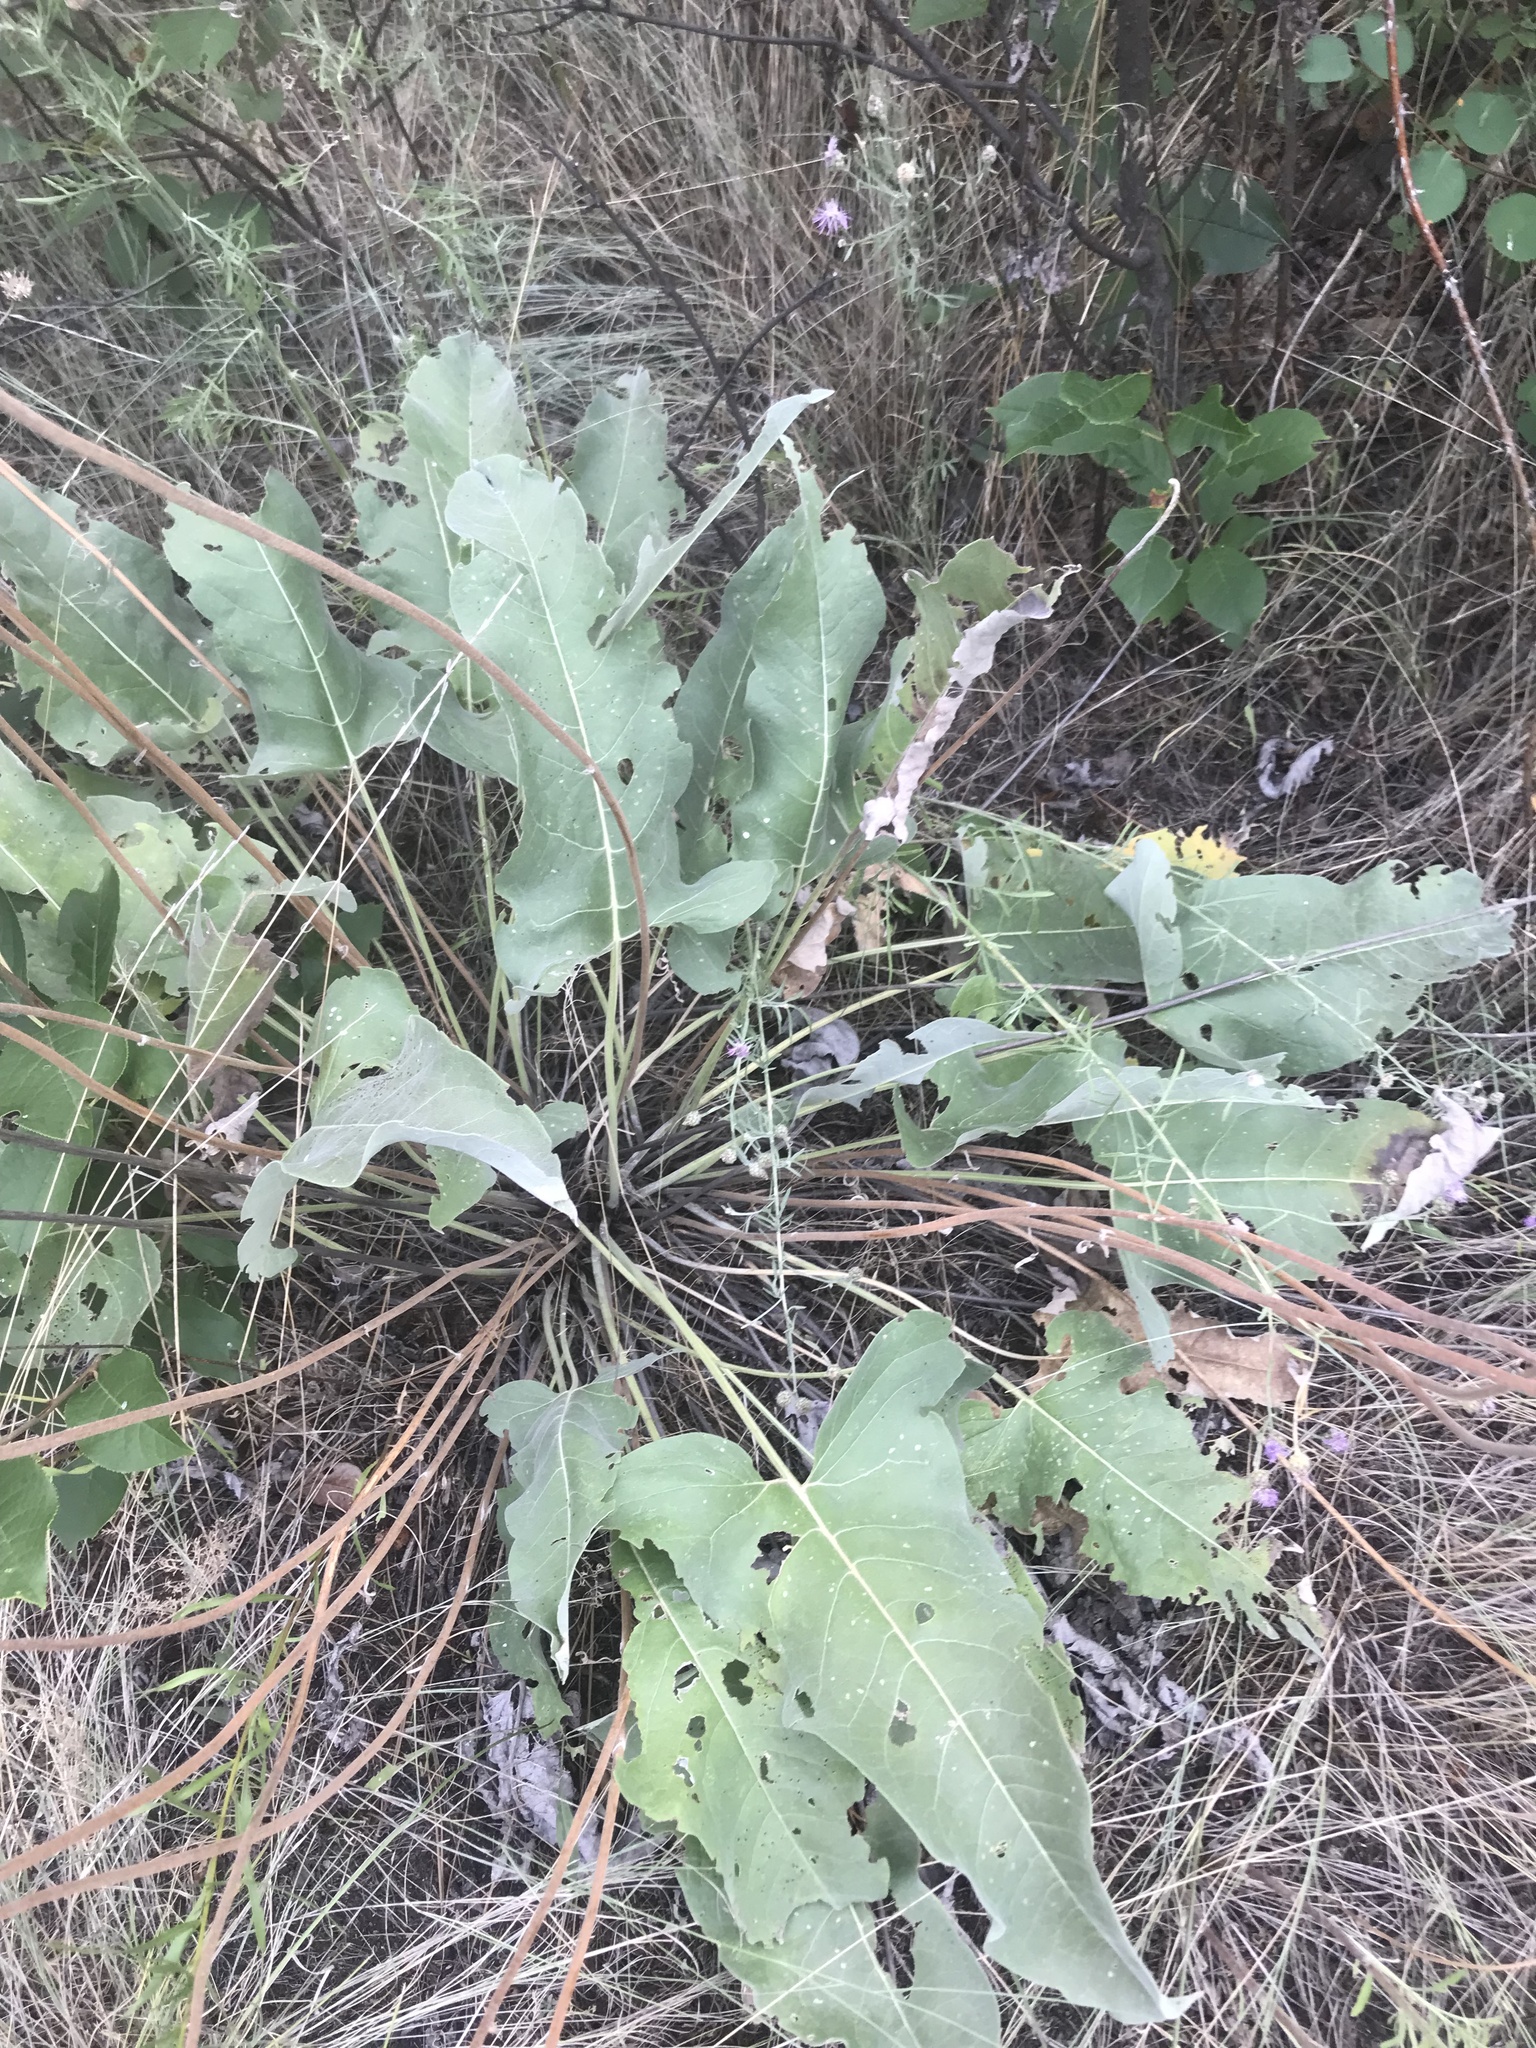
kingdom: Plantae
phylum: Tracheophyta
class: Magnoliopsida
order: Asterales
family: Asteraceae
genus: Wyethia
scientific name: Wyethia sagittata
